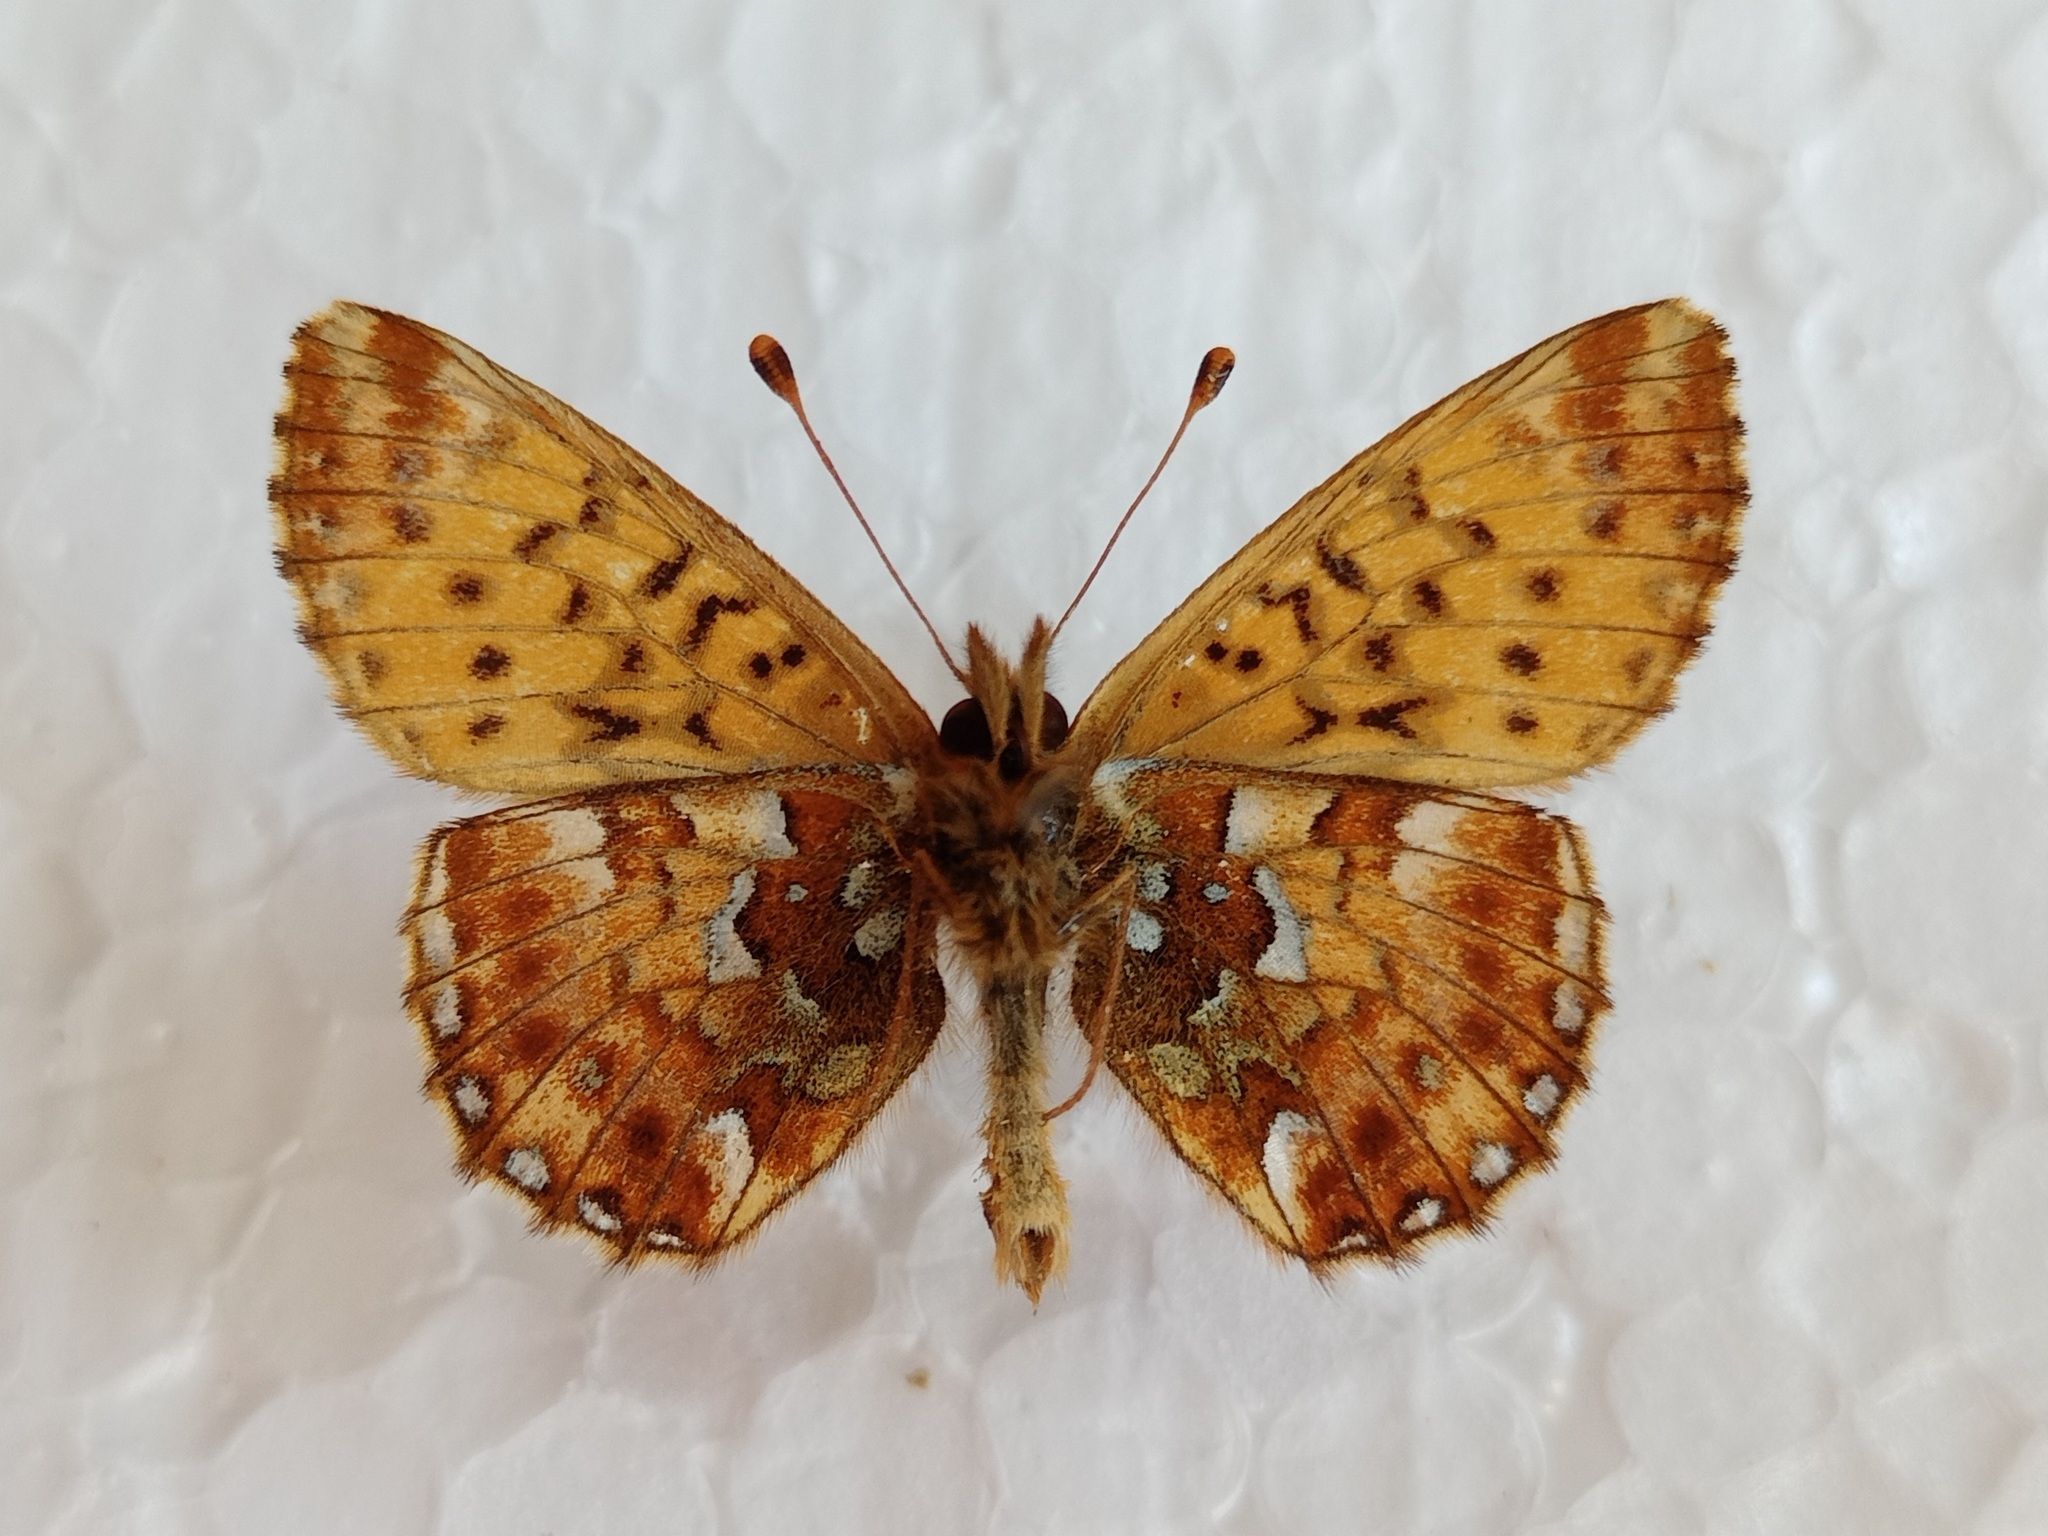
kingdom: Animalia
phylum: Arthropoda
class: Insecta
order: Lepidoptera
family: Nymphalidae
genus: Boloria
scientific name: Boloria aquilonaris
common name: Cranberry fritillary
